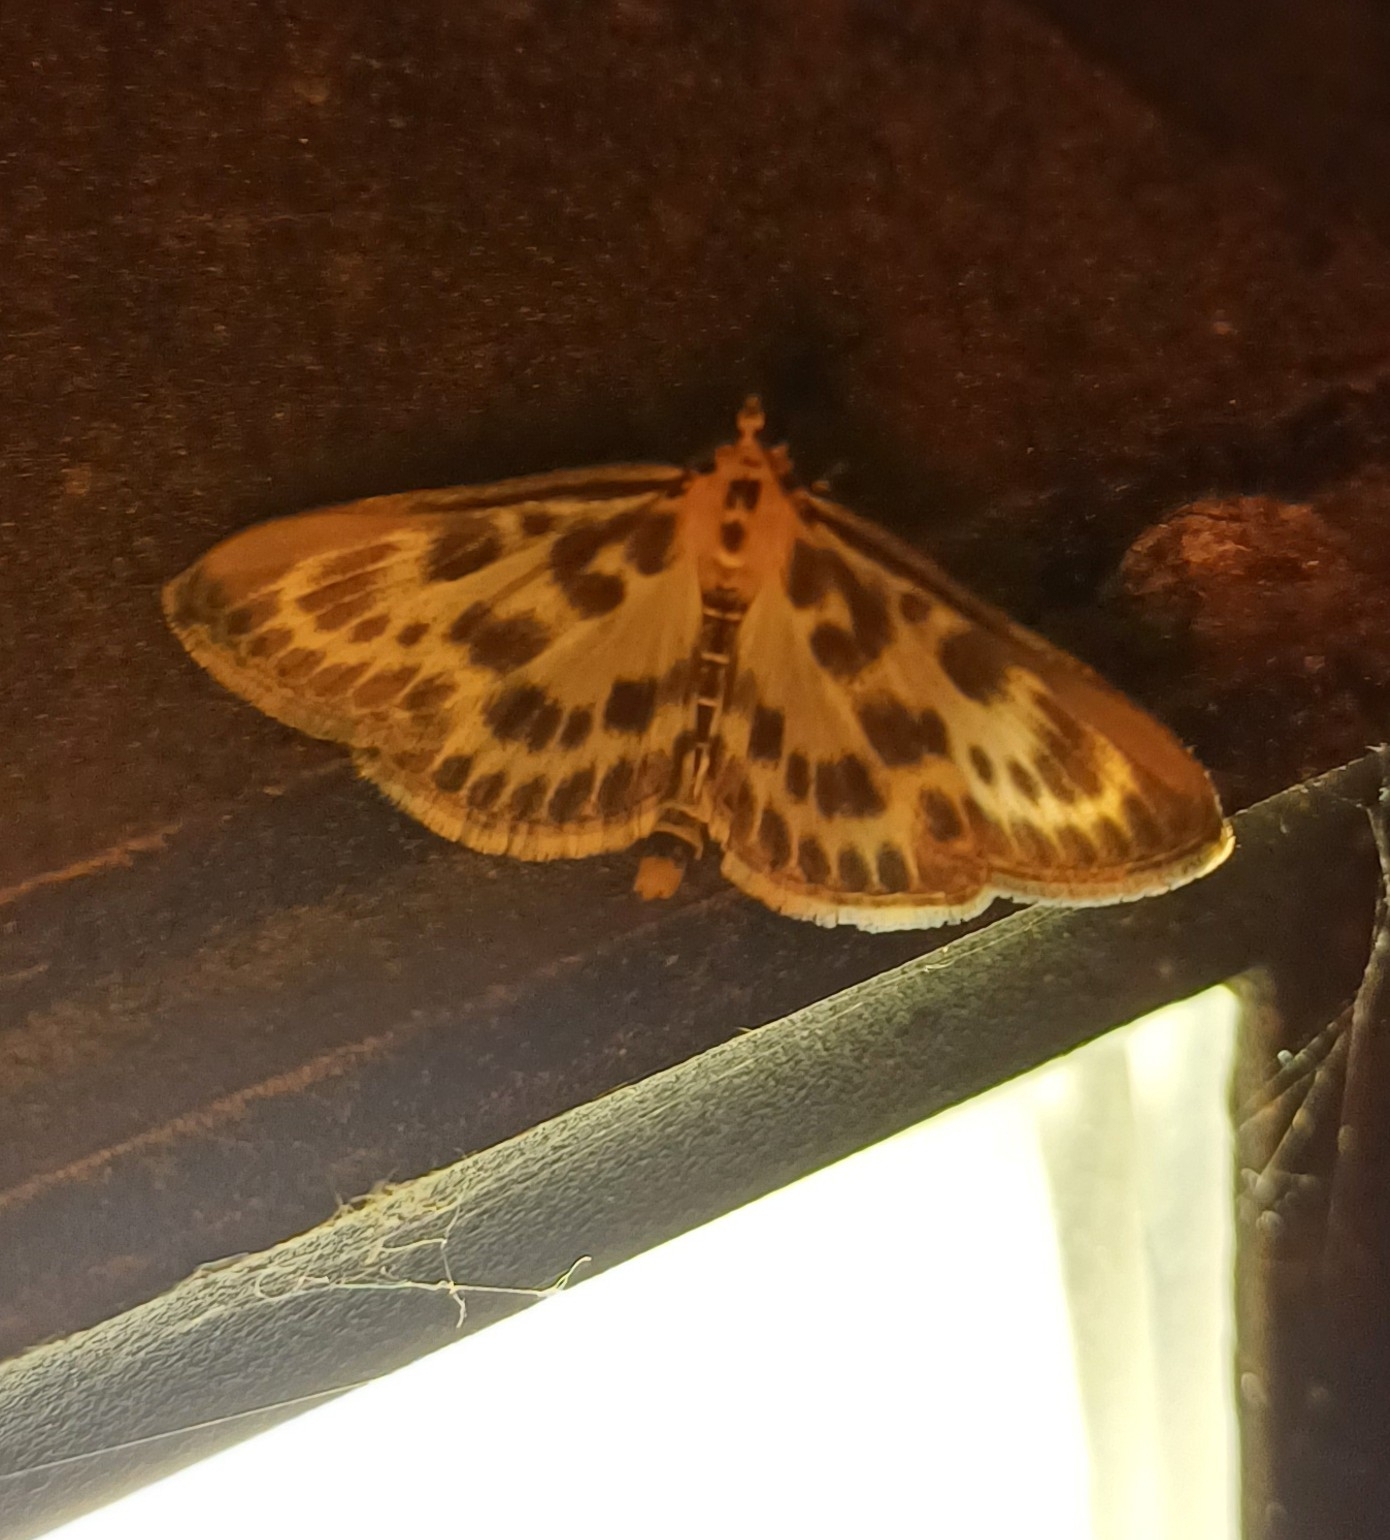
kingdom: Animalia
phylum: Arthropoda
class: Insecta
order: Lepidoptera
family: Crambidae
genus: Anania
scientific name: Anania hortulata
